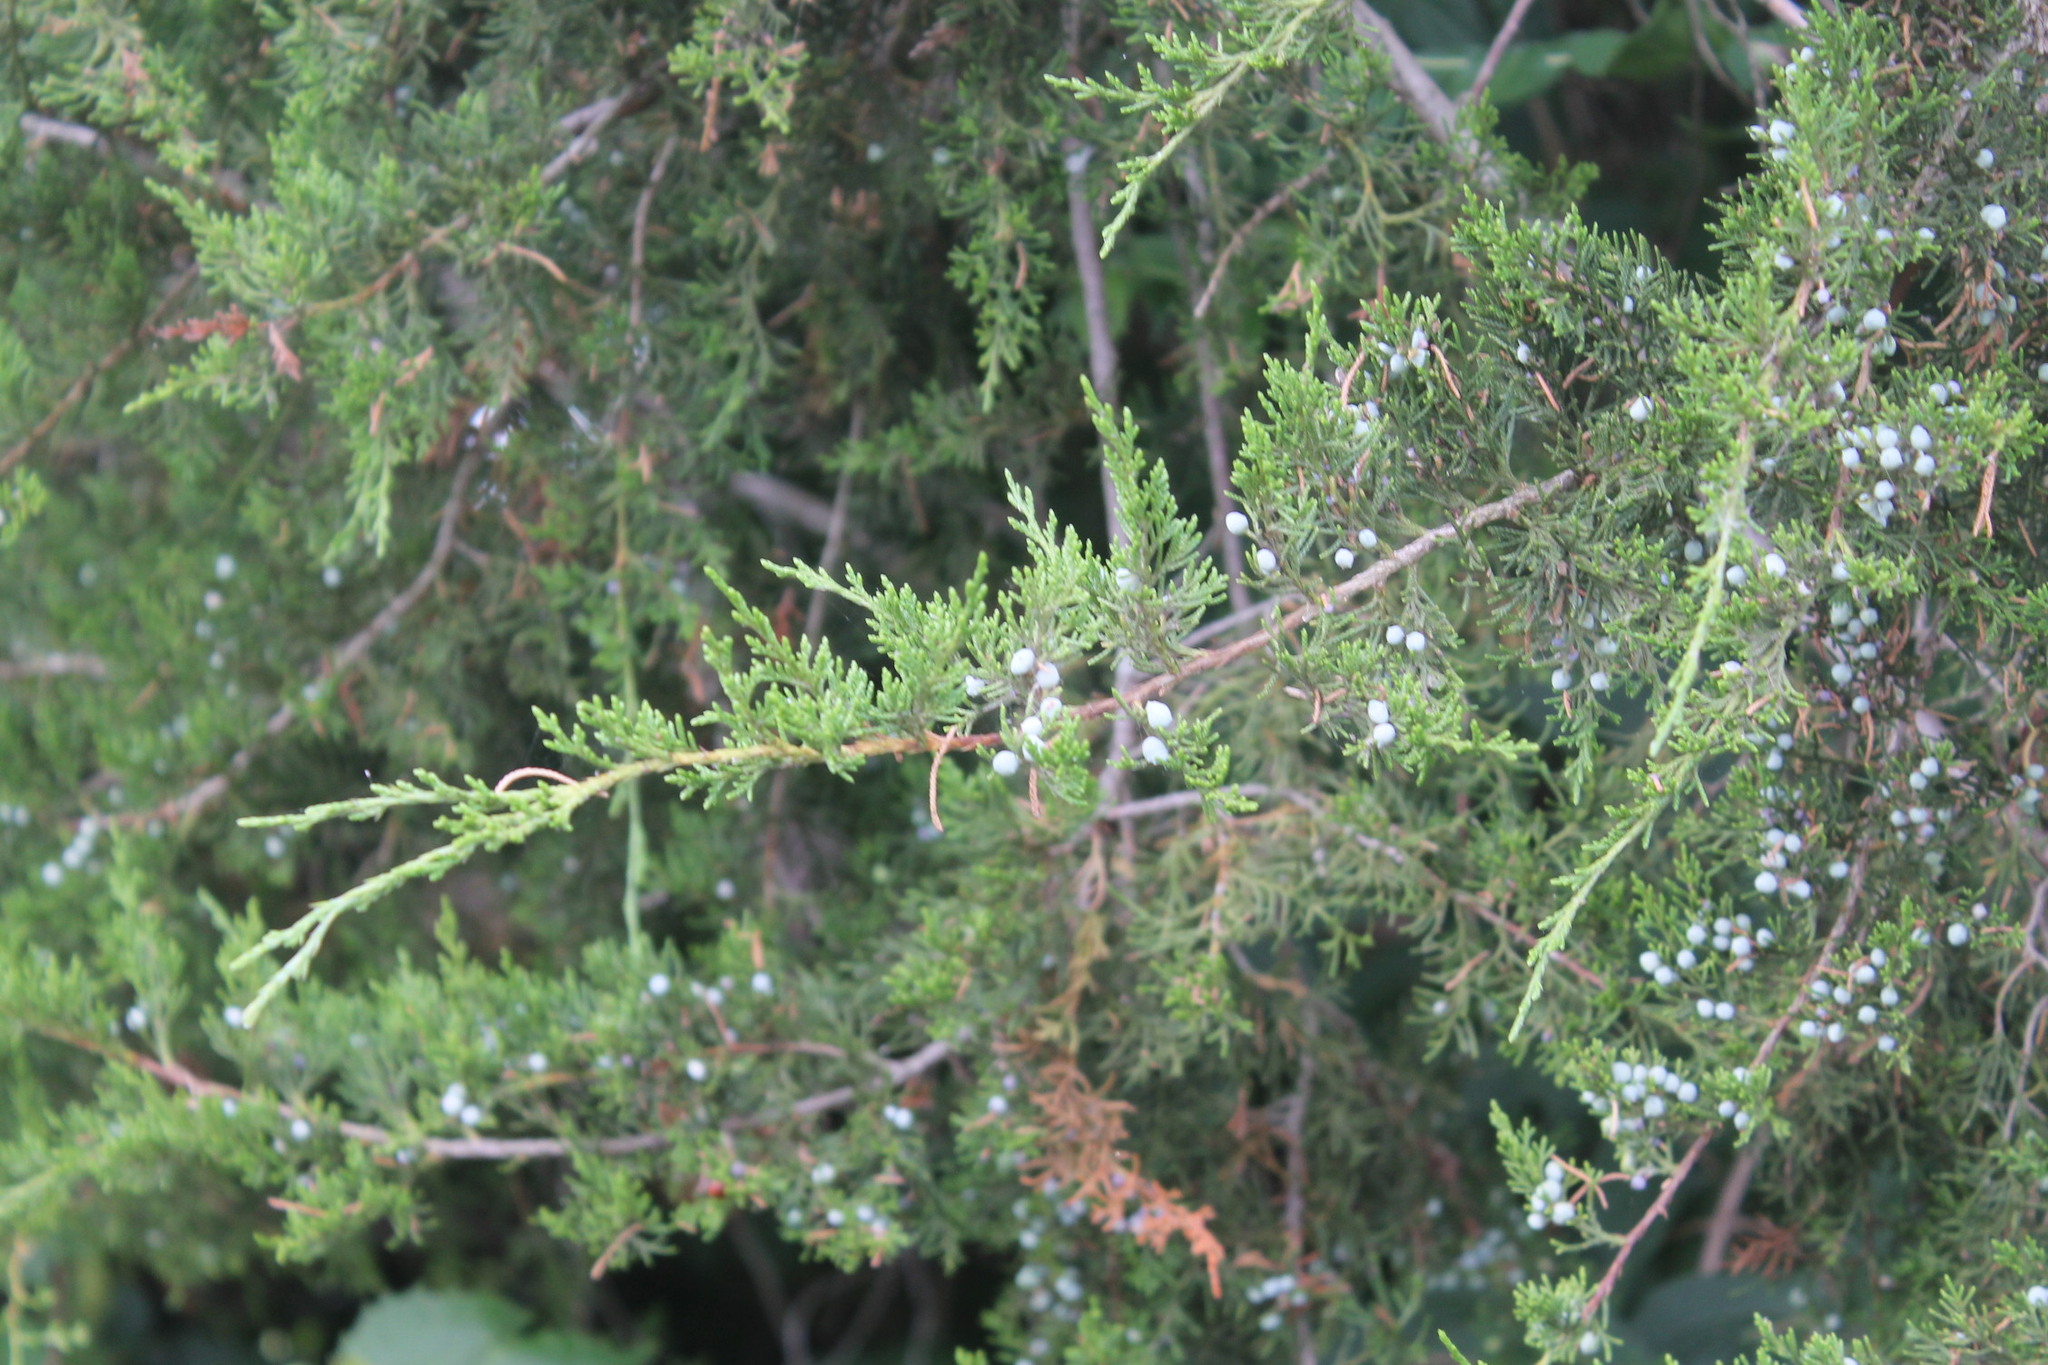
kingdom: Plantae
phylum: Tracheophyta
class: Pinopsida
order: Pinales
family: Cupressaceae
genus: Juniperus
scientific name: Juniperus virginiana
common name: Red juniper
